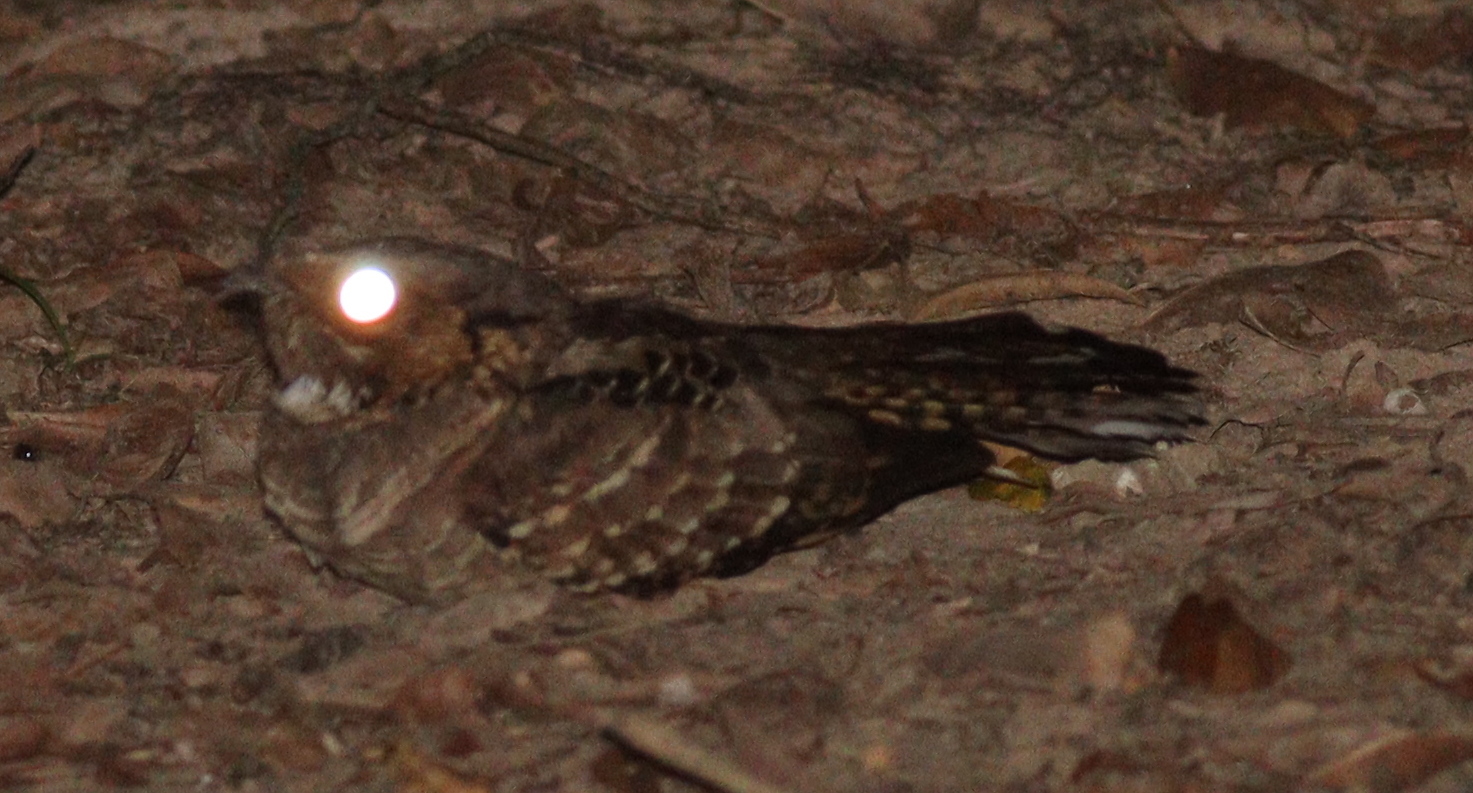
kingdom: Animalia
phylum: Chordata
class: Aves
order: Caprimulgiformes
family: Caprimulgidae
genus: Nyctidromus
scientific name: Nyctidromus albicollis
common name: Pauraque
